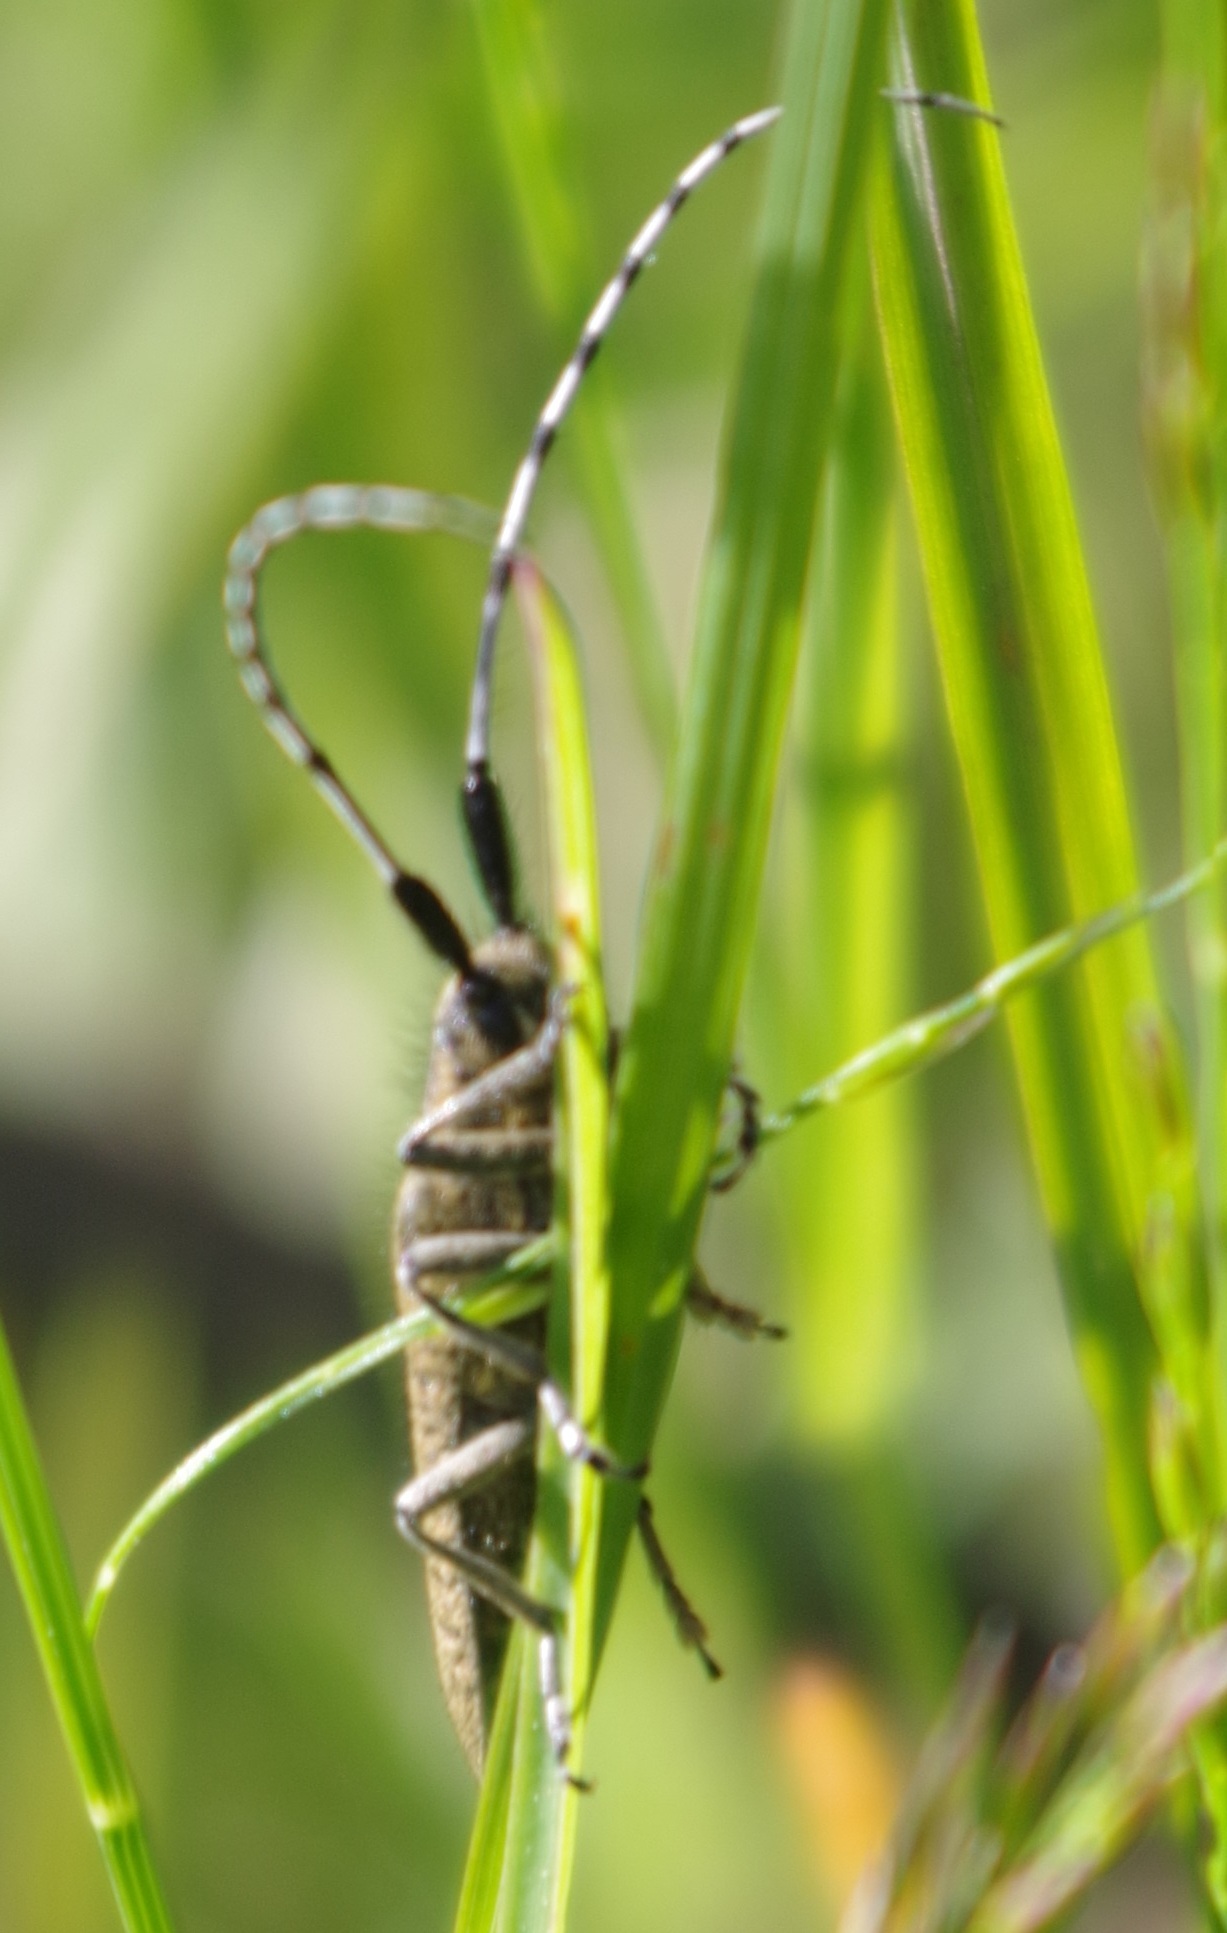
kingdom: Animalia
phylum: Arthropoda
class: Insecta
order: Coleoptera
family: Cerambycidae
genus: Agapanthia
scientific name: Agapanthia villosoviridescens
